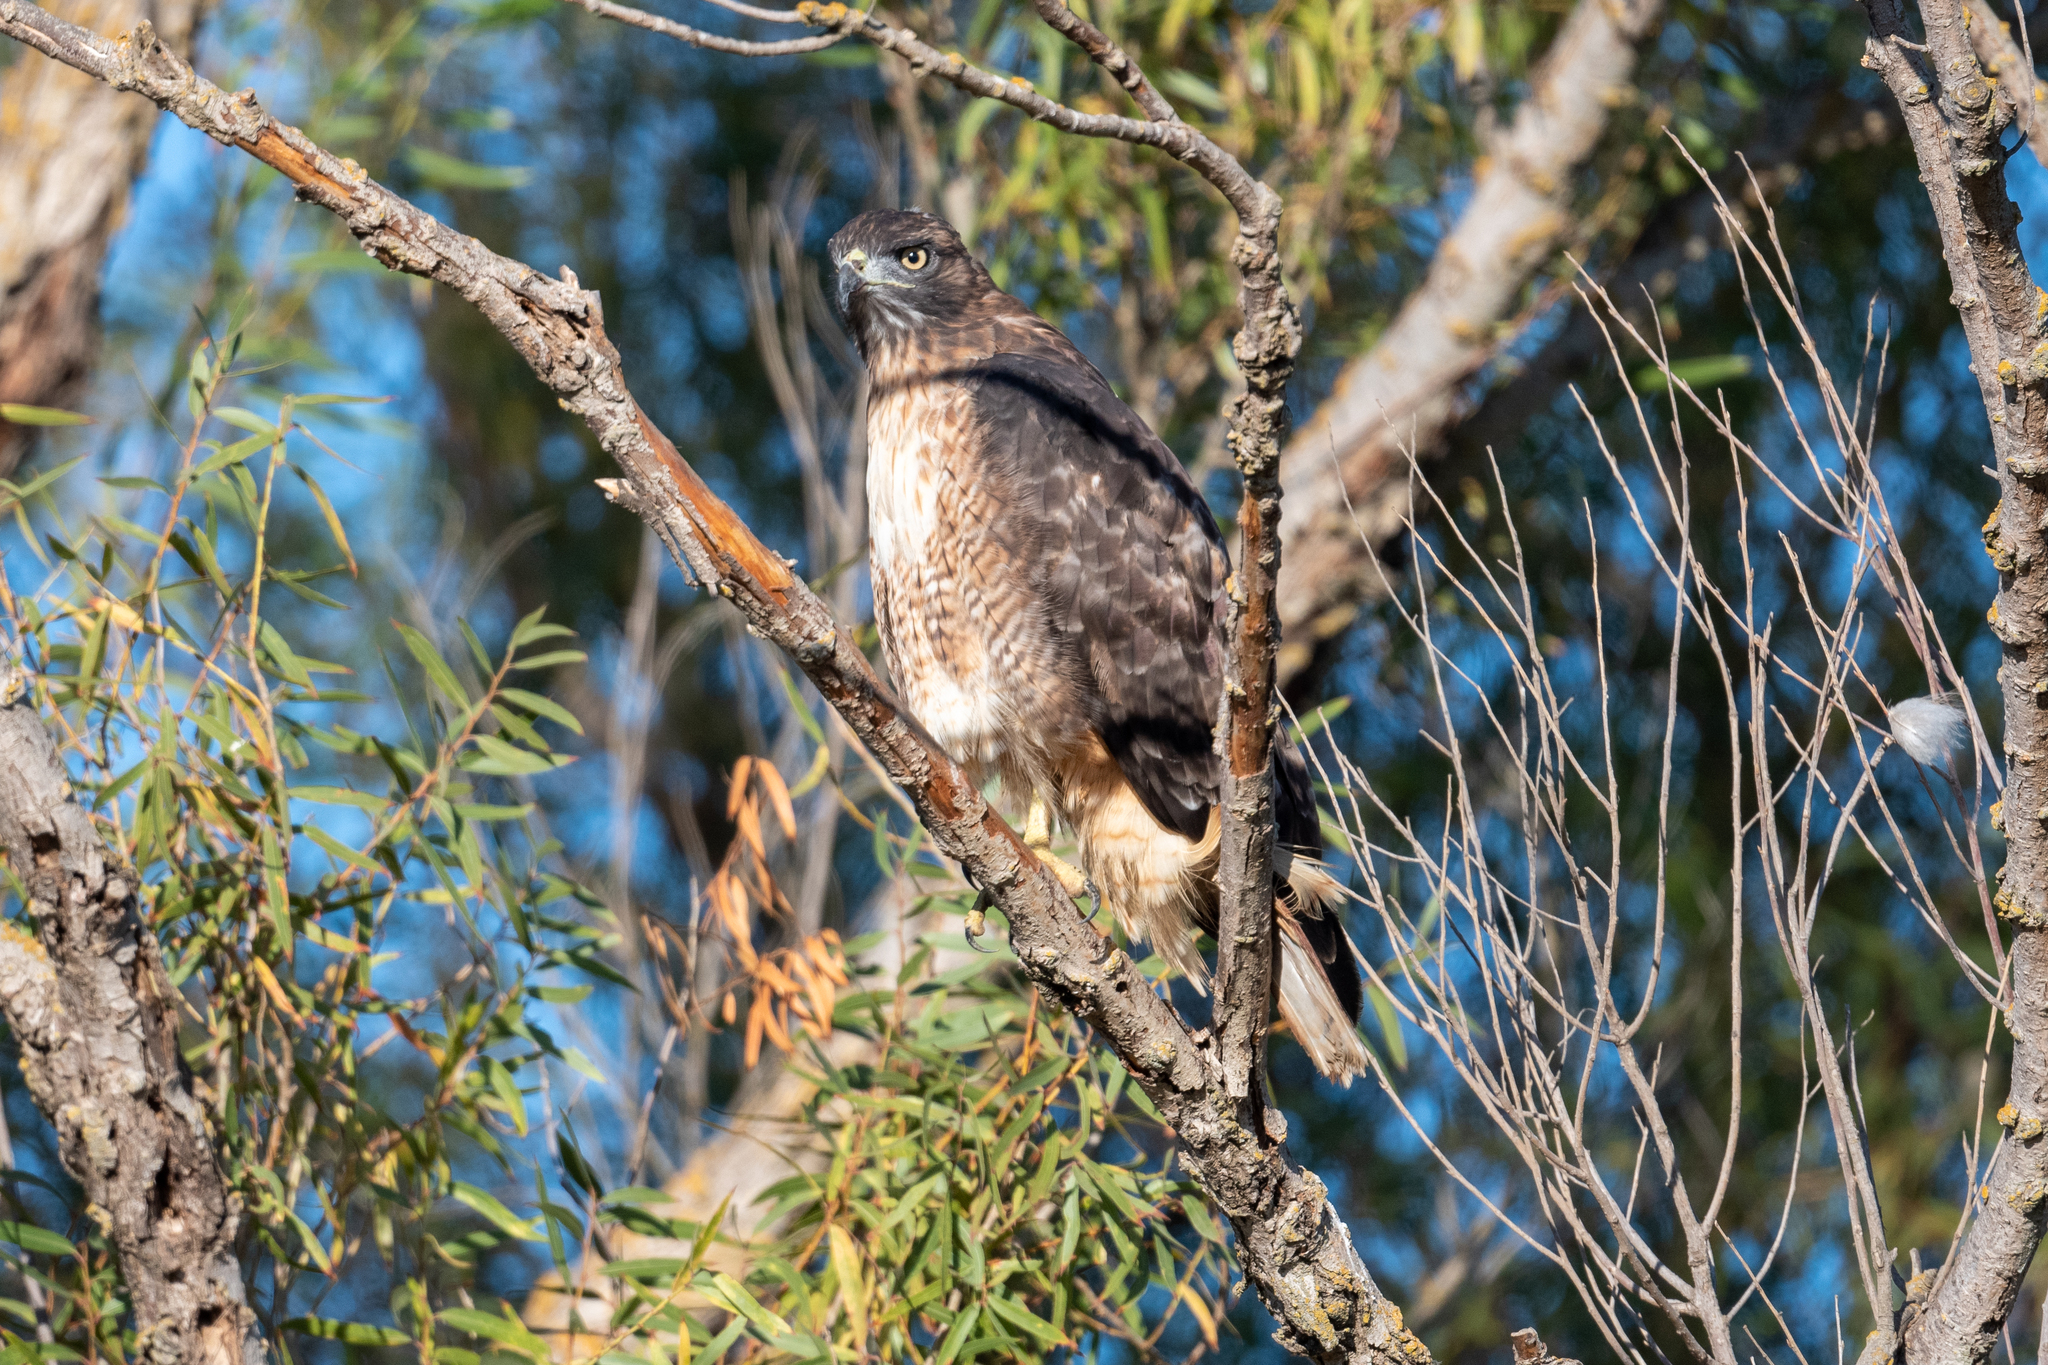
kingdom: Animalia
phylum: Chordata
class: Aves
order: Accipitriformes
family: Accipitridae
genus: Buteo
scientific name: Buteo jamaicensis
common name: Red-tailed hawk
